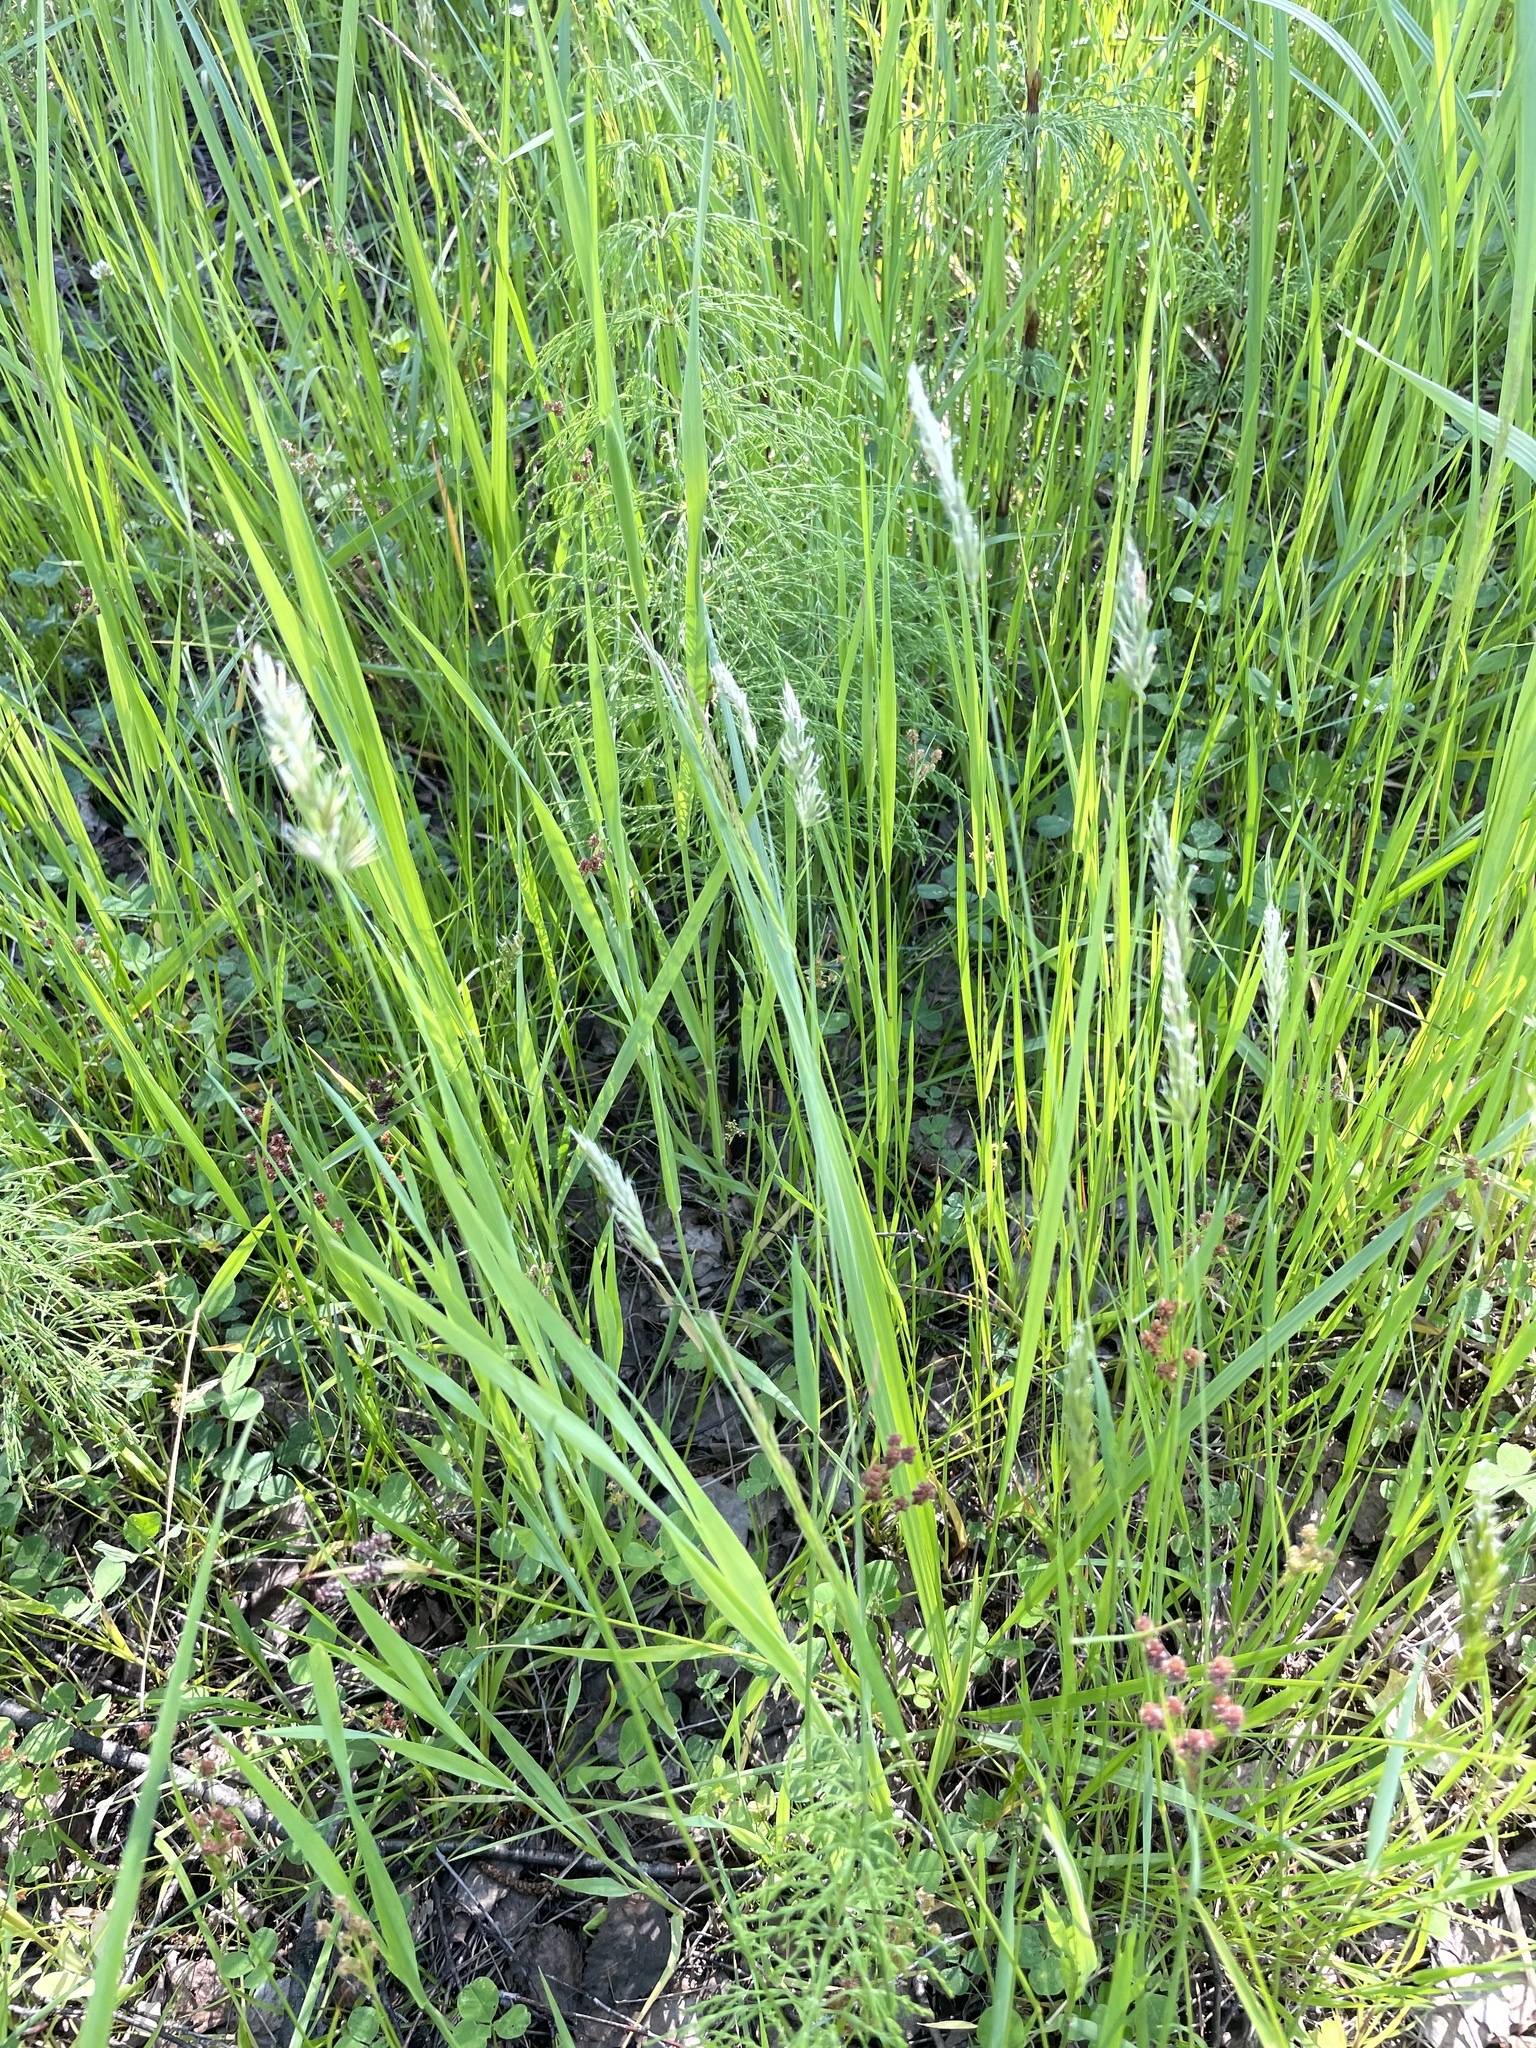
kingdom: Plantae
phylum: Tracheophyta
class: Liliopsida
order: Poales
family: Poaceae
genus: Anthoxanthum
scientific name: Anthoxanthum odoratum
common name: Sweet vernalgrass
